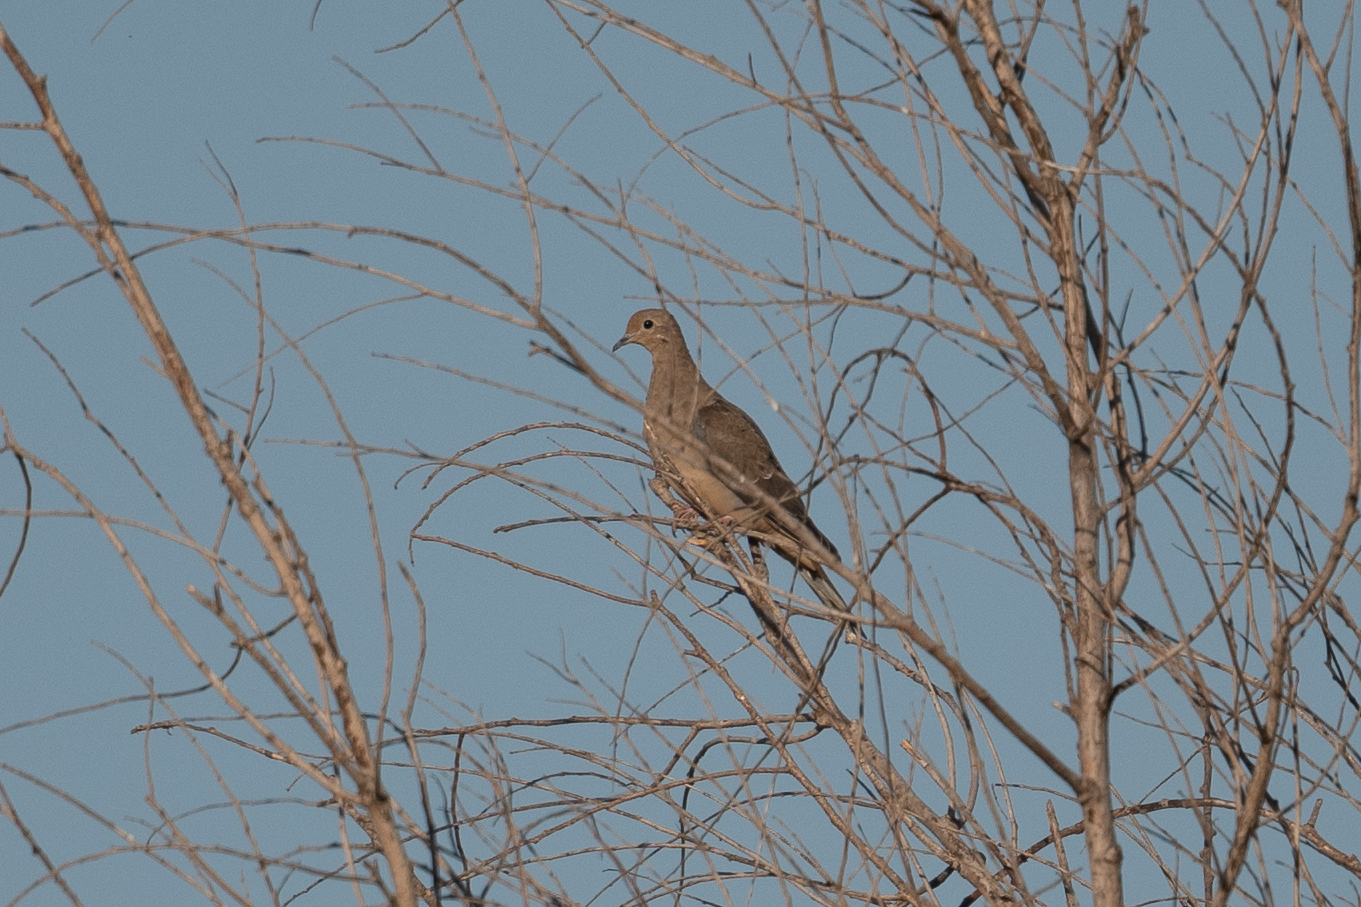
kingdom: Animalia
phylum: Chordata
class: Aves
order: Columbiformes
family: Columbidae
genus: Zenaida
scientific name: Zenaida macroura
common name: Mourning dove
